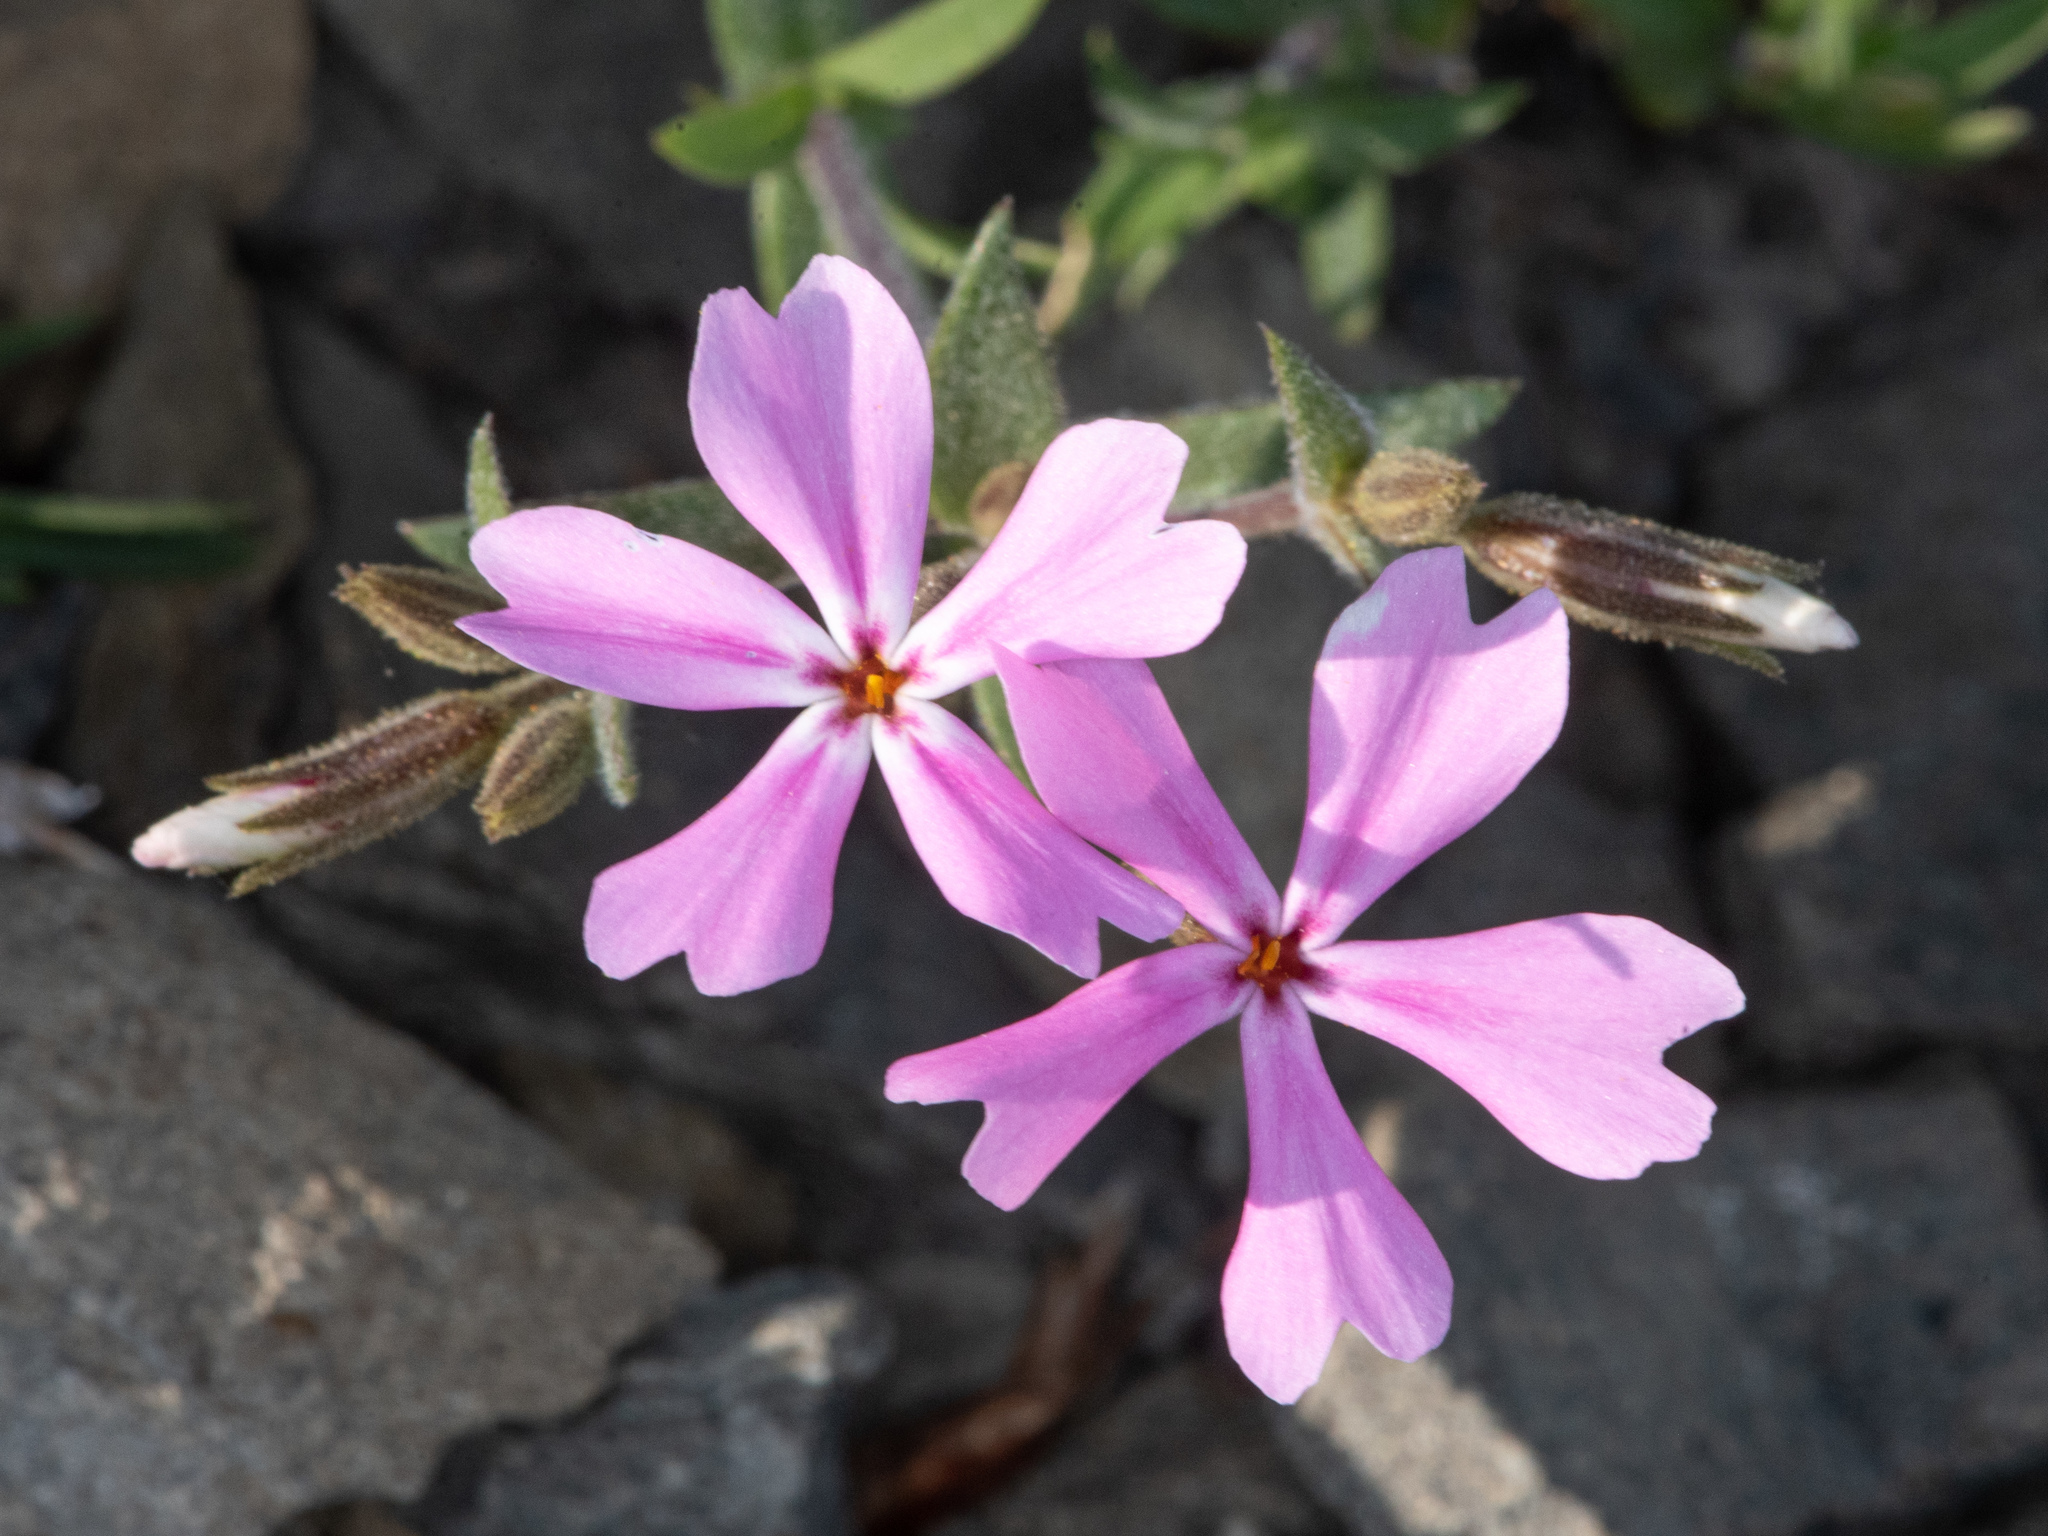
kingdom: Plantae
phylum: Tracheophyta
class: Magnoliopsida
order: Ericales
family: Polemoniaceae
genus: Phlox
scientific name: Phlox speciosa
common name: Bush phlox
